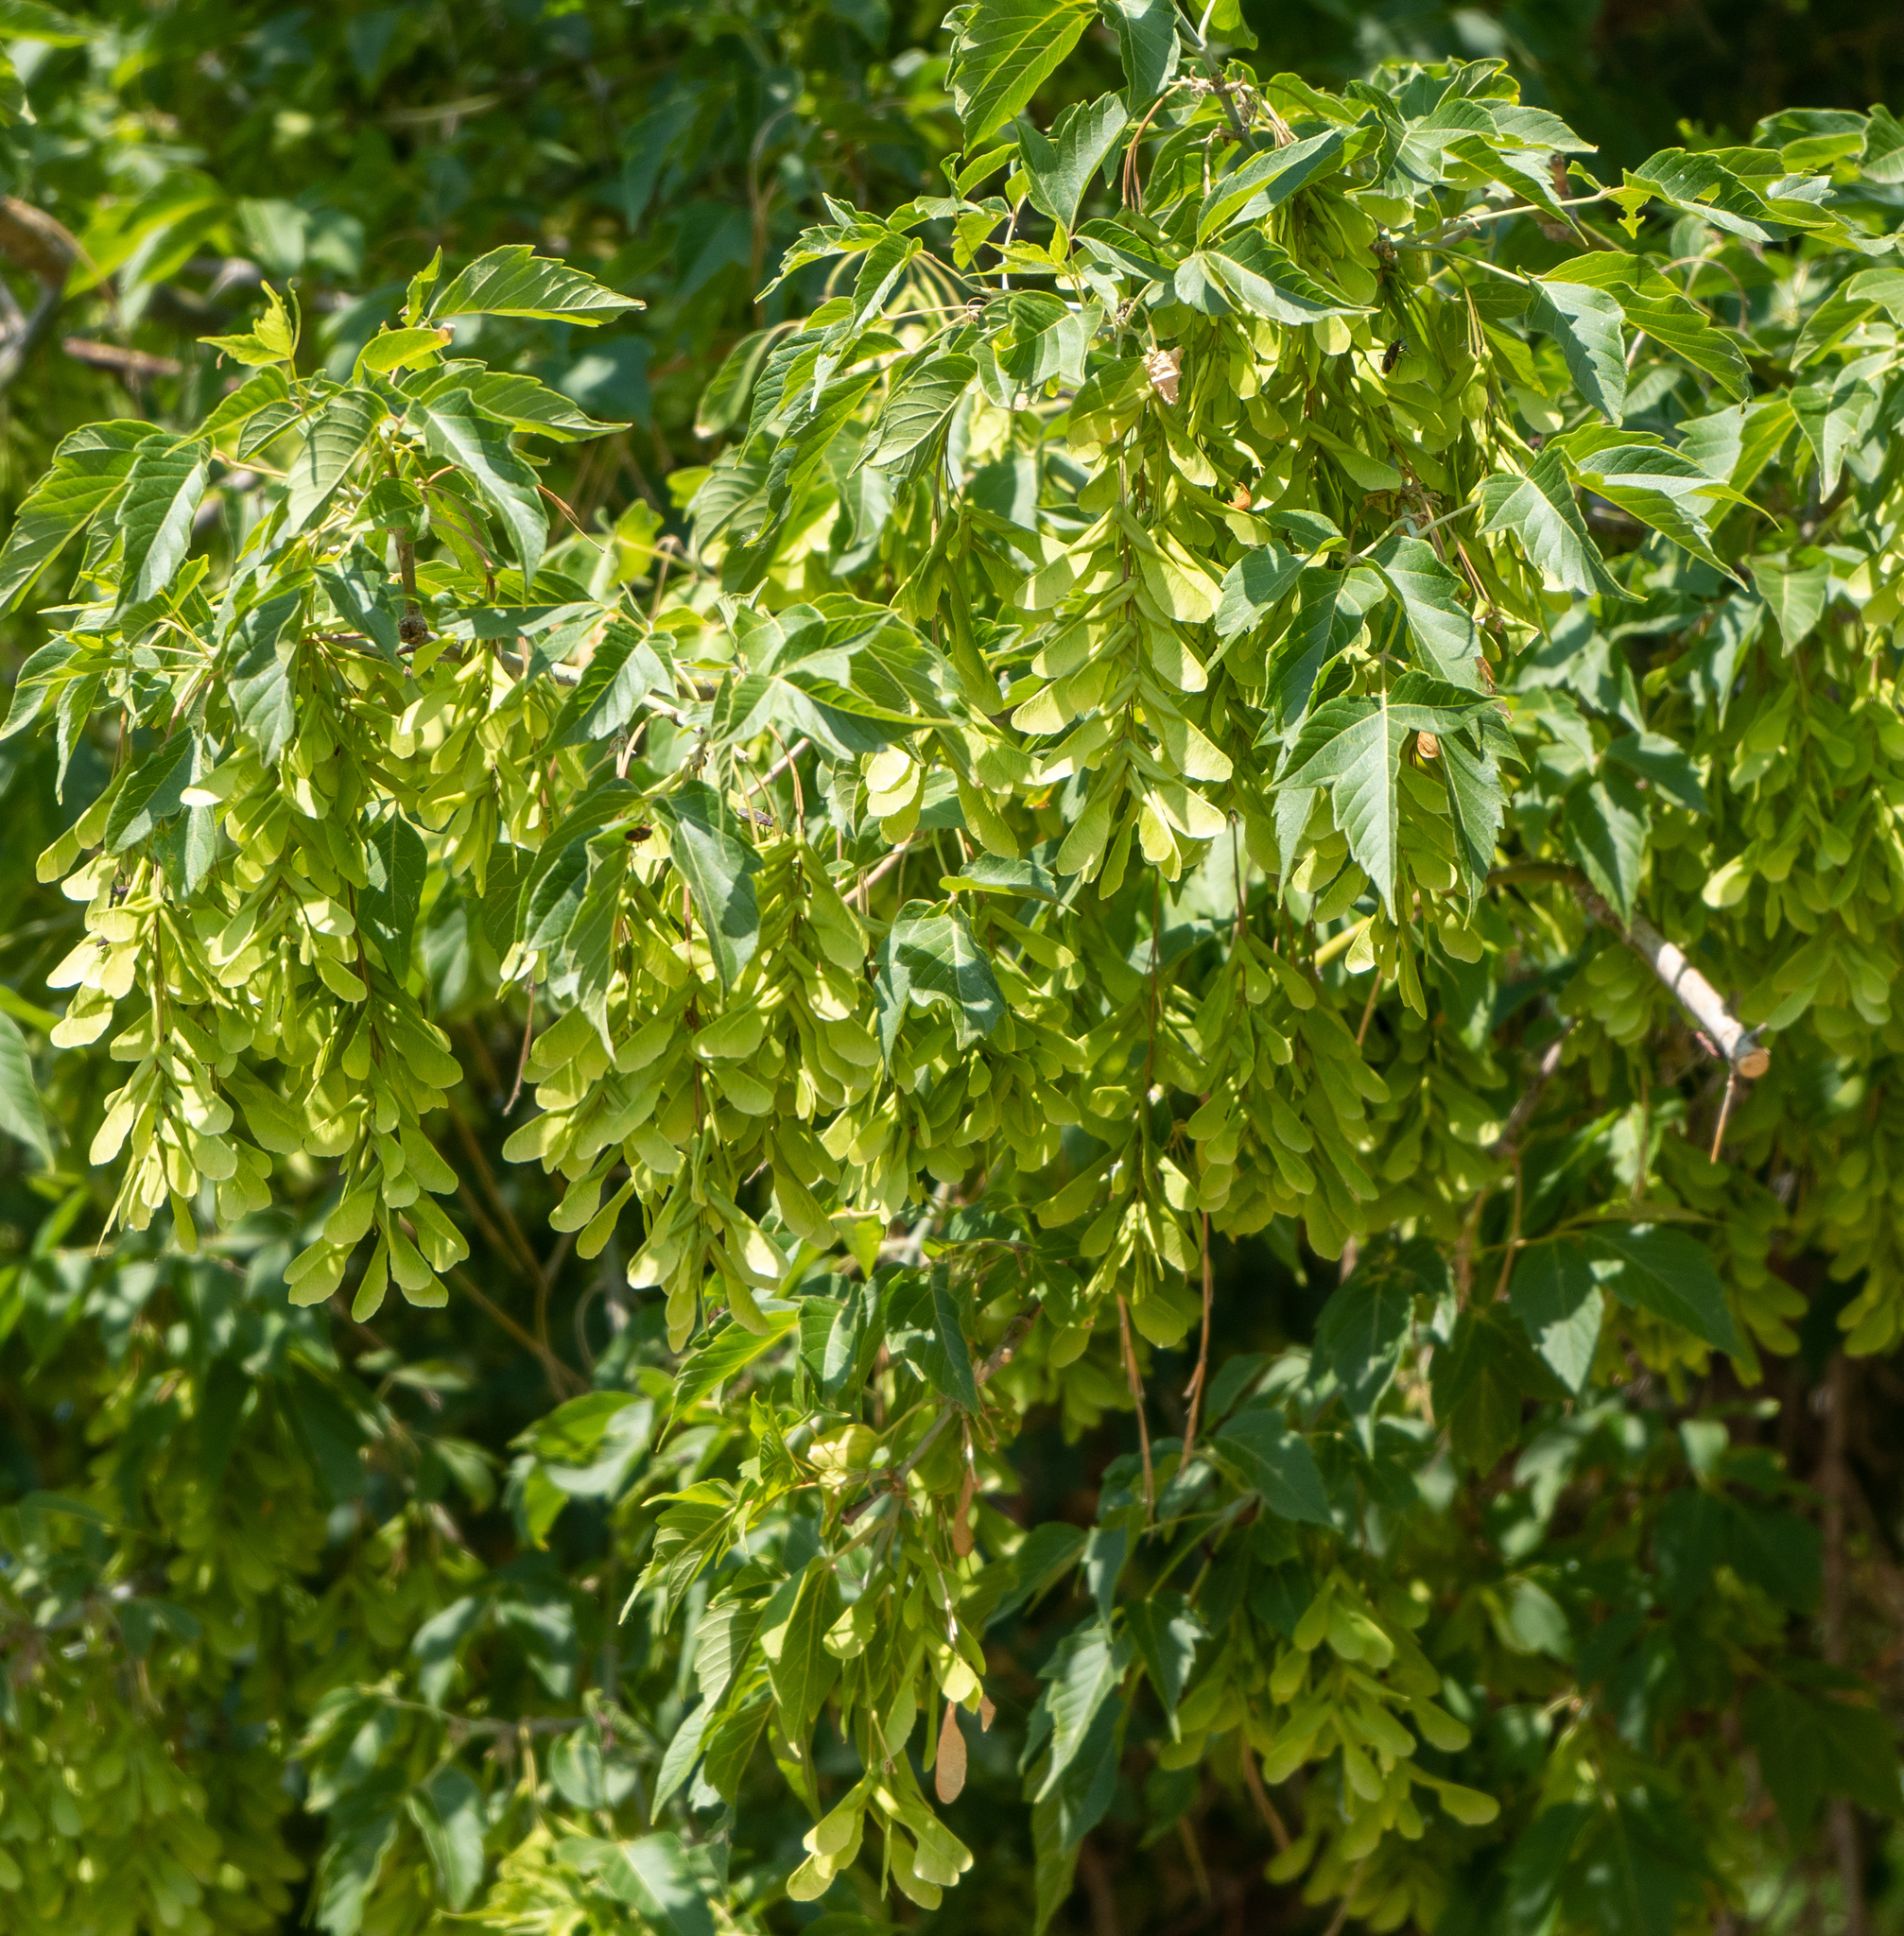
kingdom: Plantae
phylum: Tracheophyta
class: Magnoliopsida
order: Sapindales
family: Sapindaceae
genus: Acer
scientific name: Acer negundo
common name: Ashleaf maple
